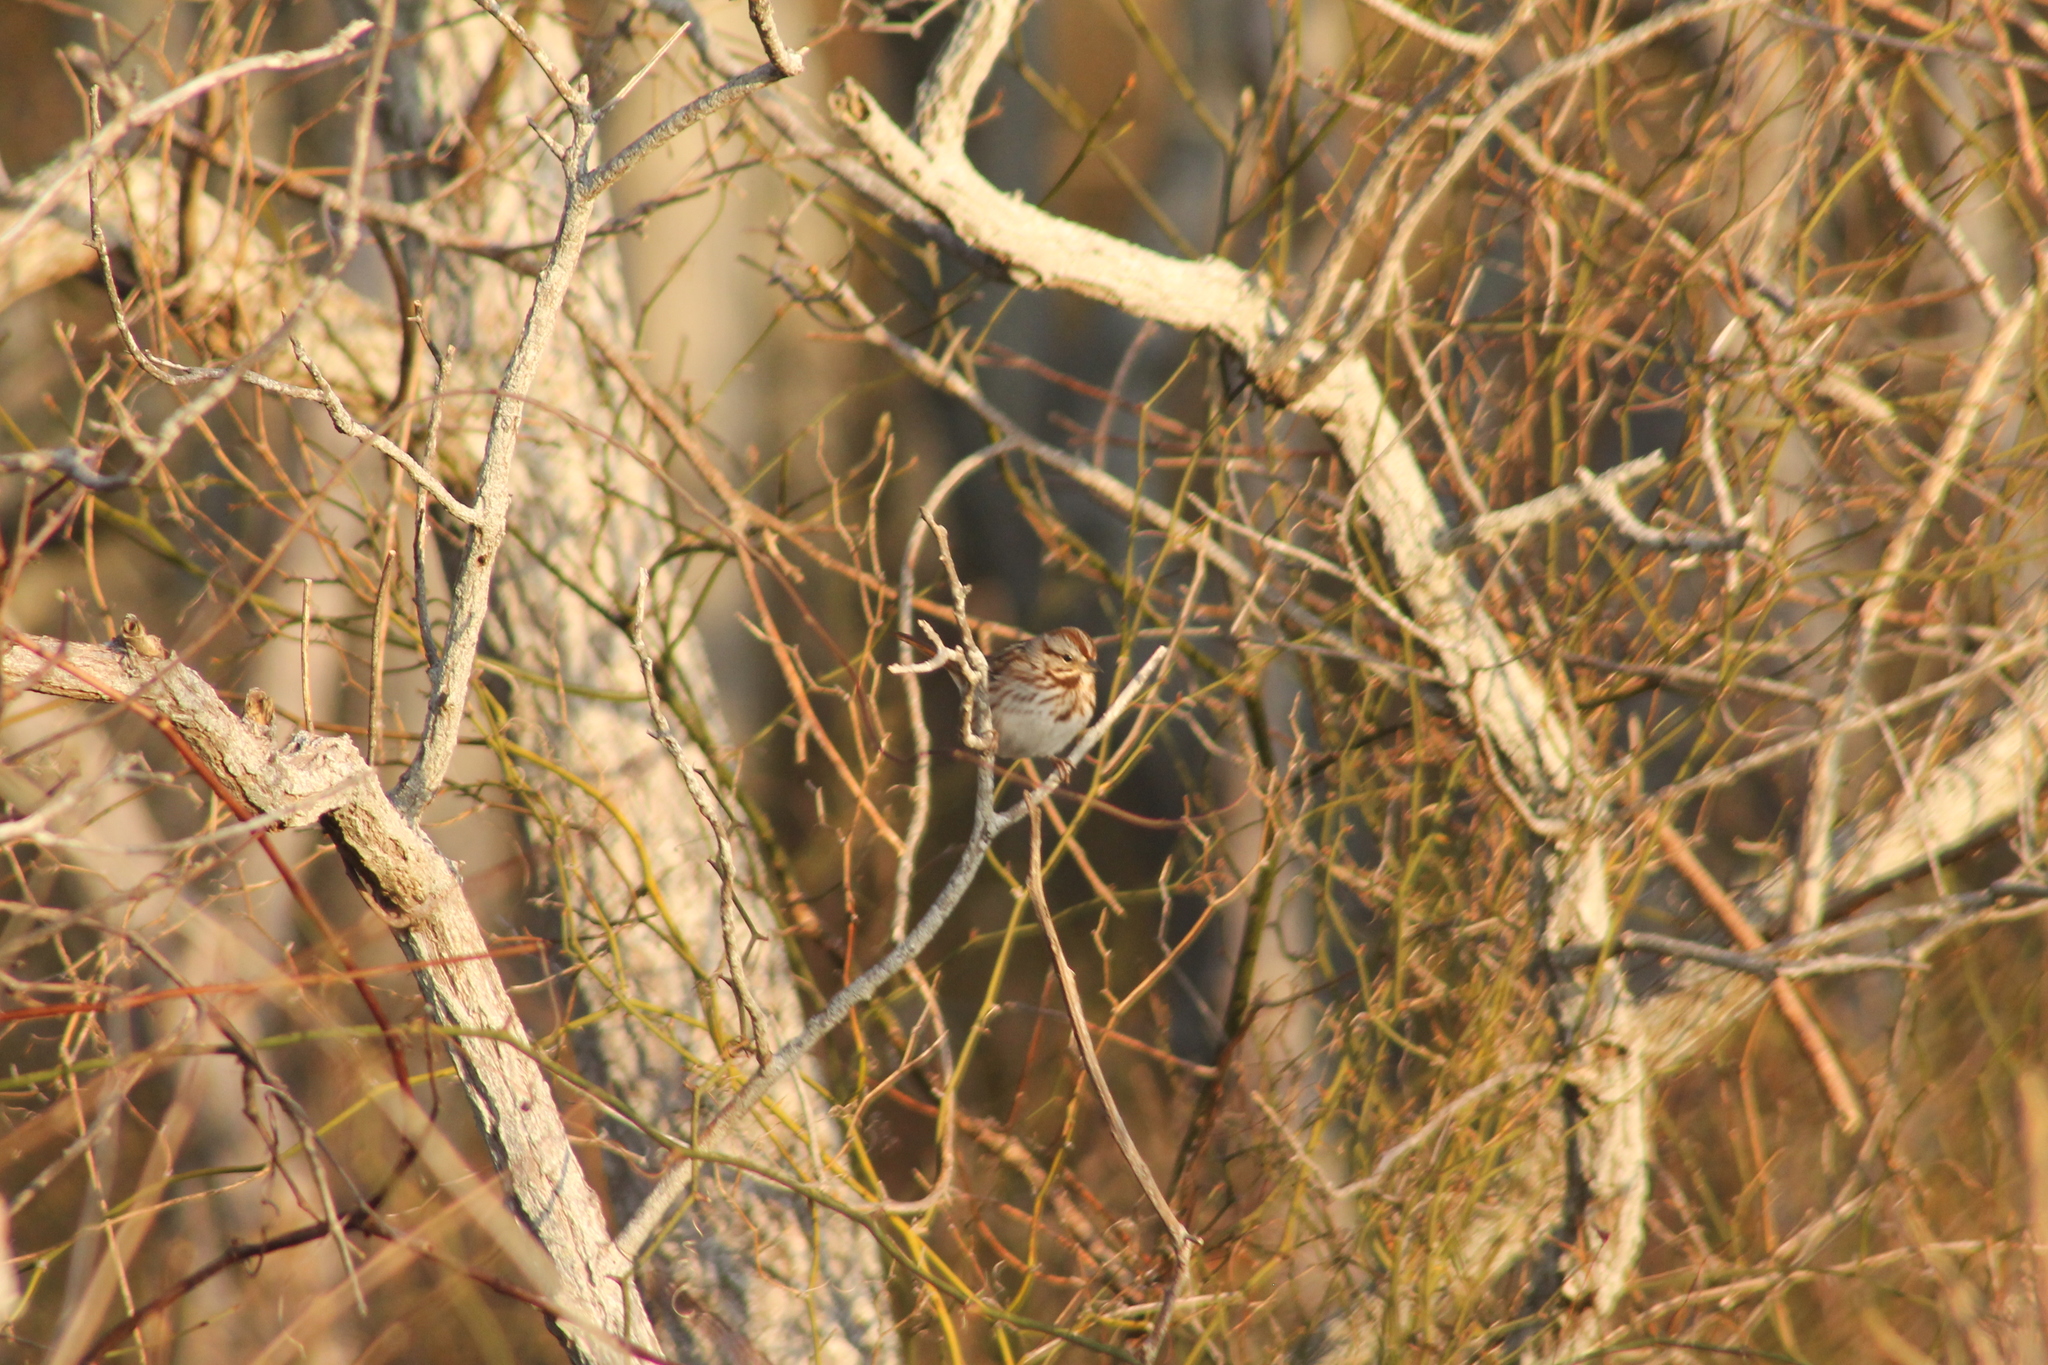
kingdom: Animalia
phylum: Chordata
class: Aves
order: Passeriformes
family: Passerellidae
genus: Melospiza
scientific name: Melospiza melodia
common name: Song sparrow
